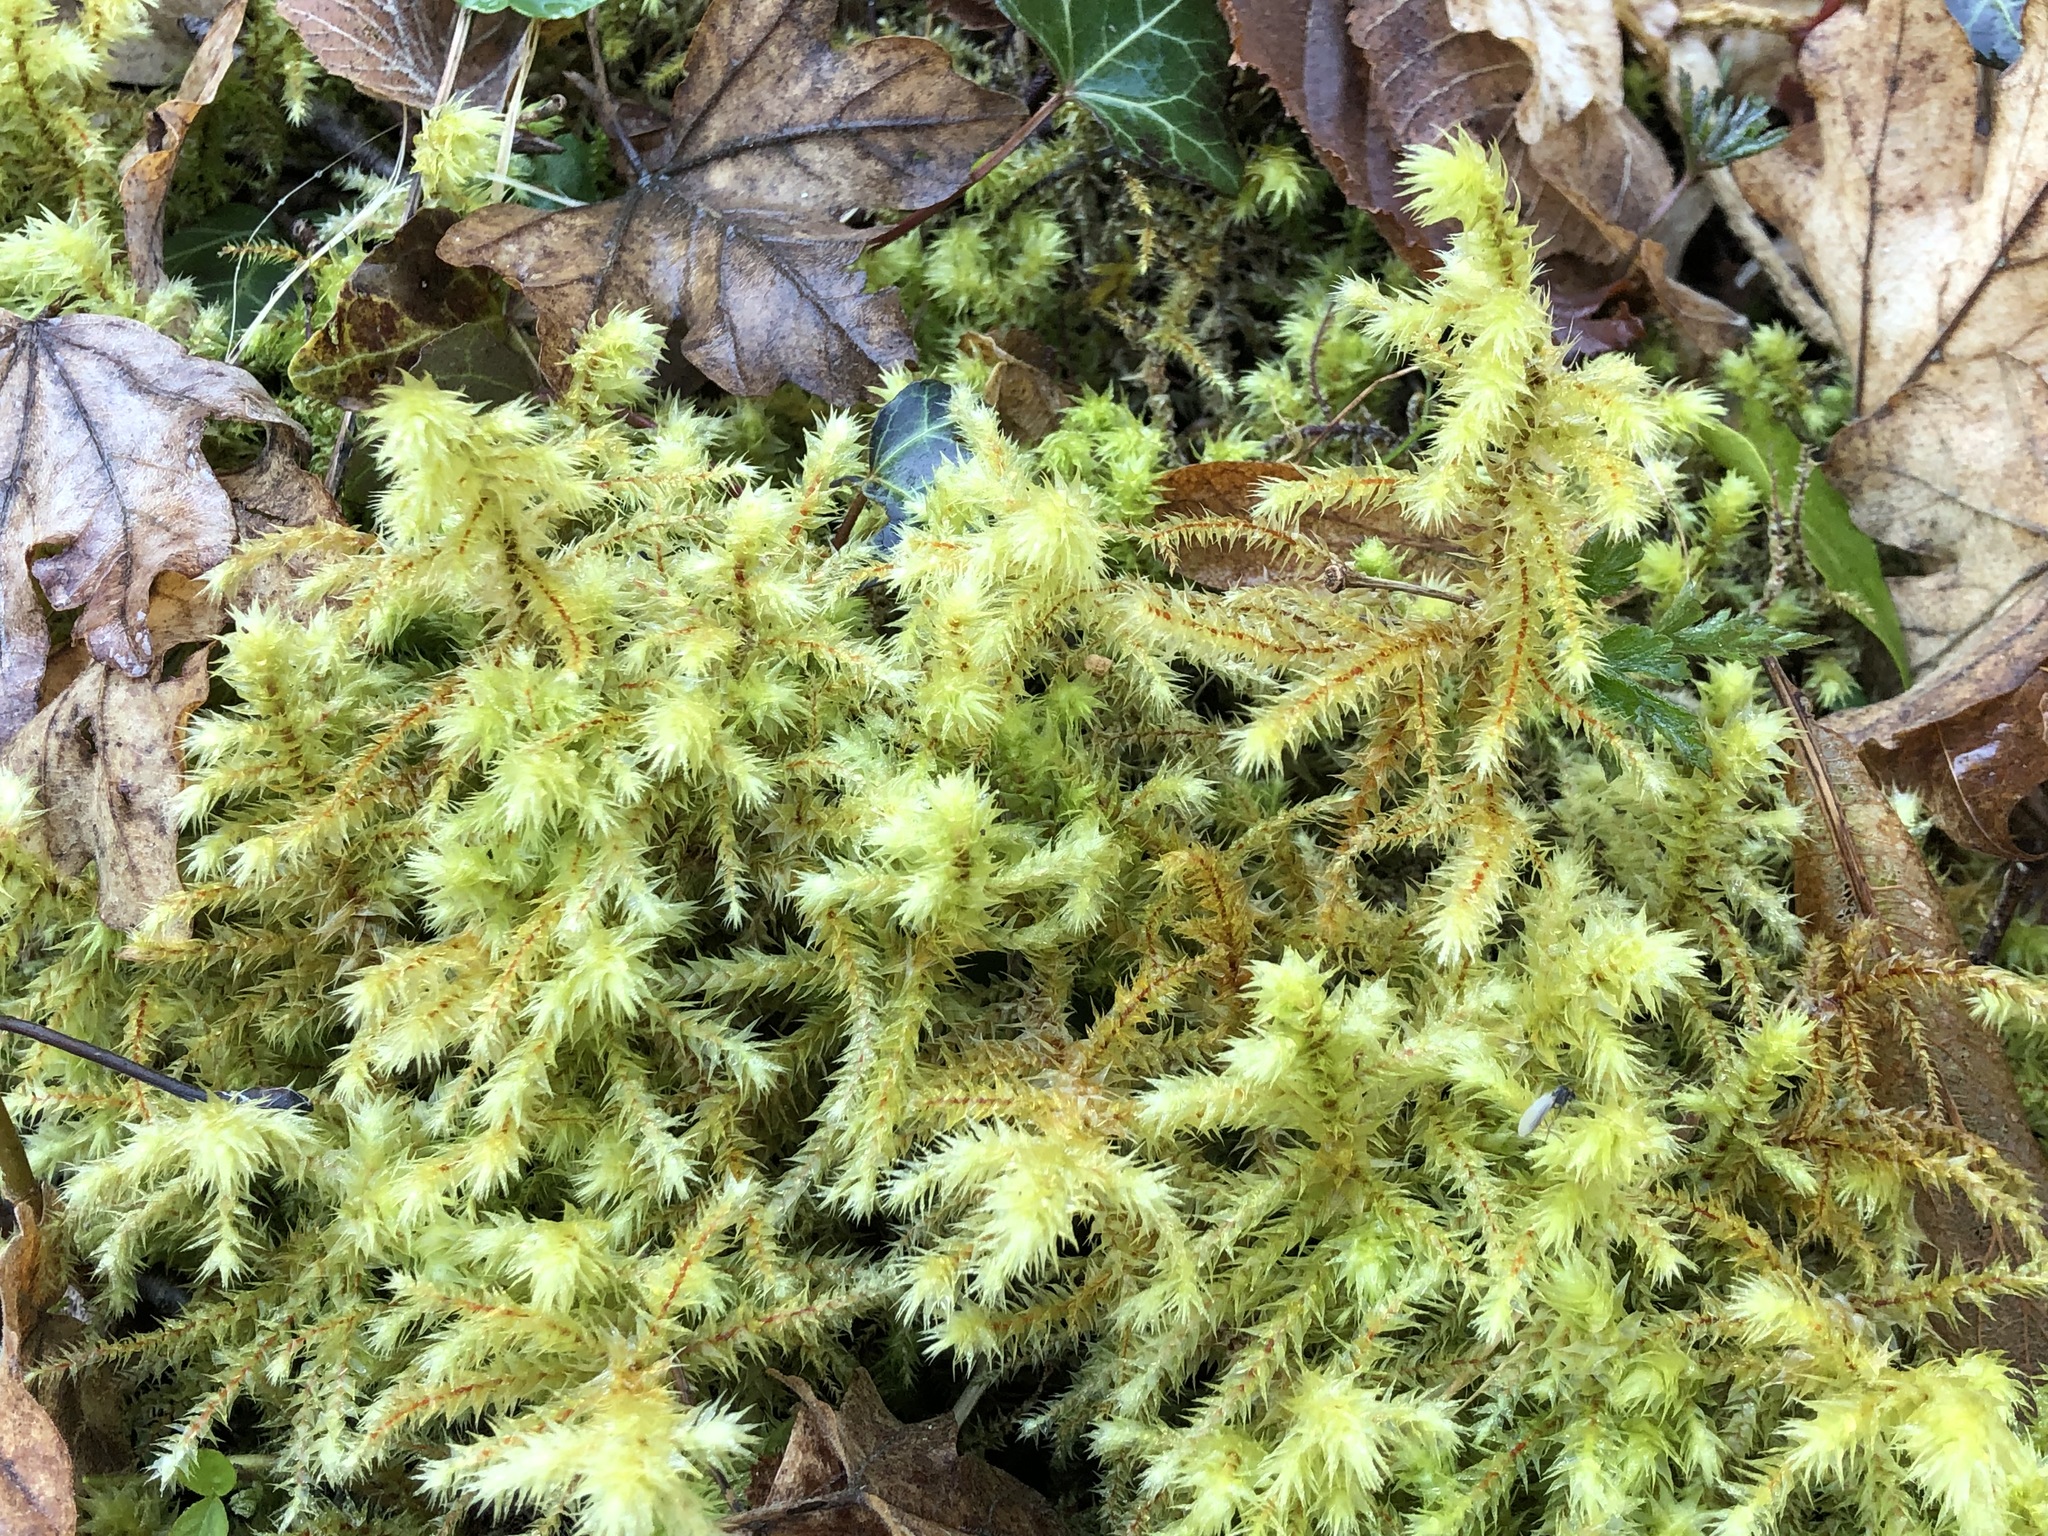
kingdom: Plantae
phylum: Bryophyta
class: Bryopsida
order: Hypnales
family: Hylocomiaceae
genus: Hylocomiadelphus
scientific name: Hylocomiadelphus triquetrus
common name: Rough goose neck moss
